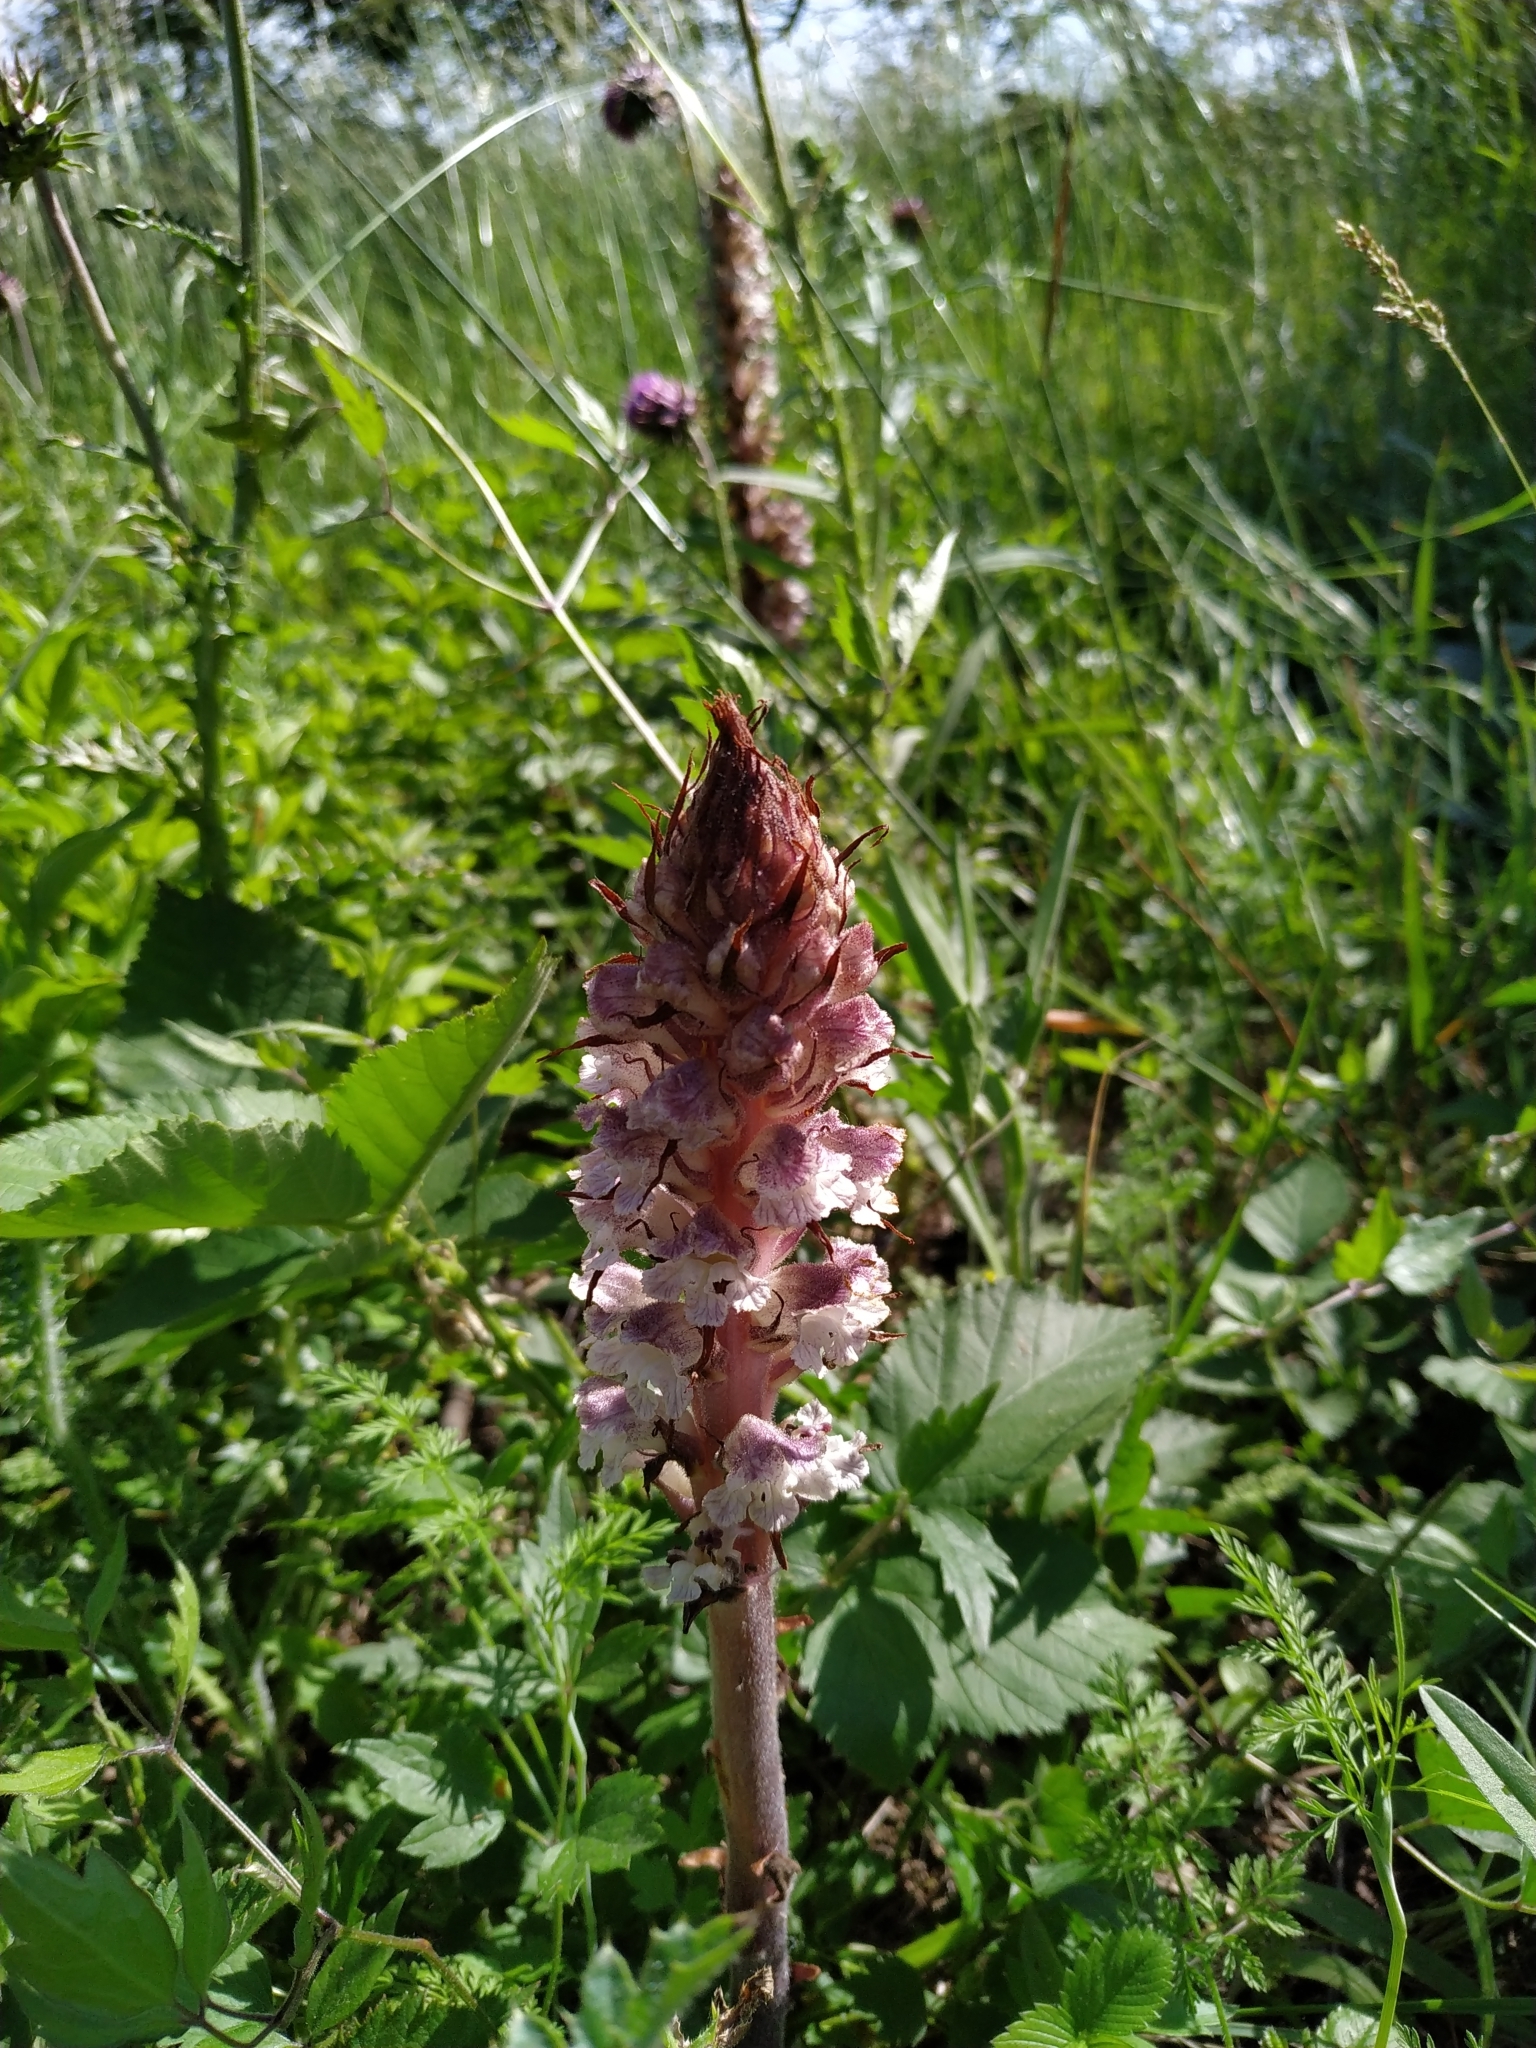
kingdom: Plantae
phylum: Tracheophyta
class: Magnoliopsida
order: Lamiales
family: Orobanchaceae
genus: Orobanche
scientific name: Orobanche reticulata
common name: Thistle broomrape
